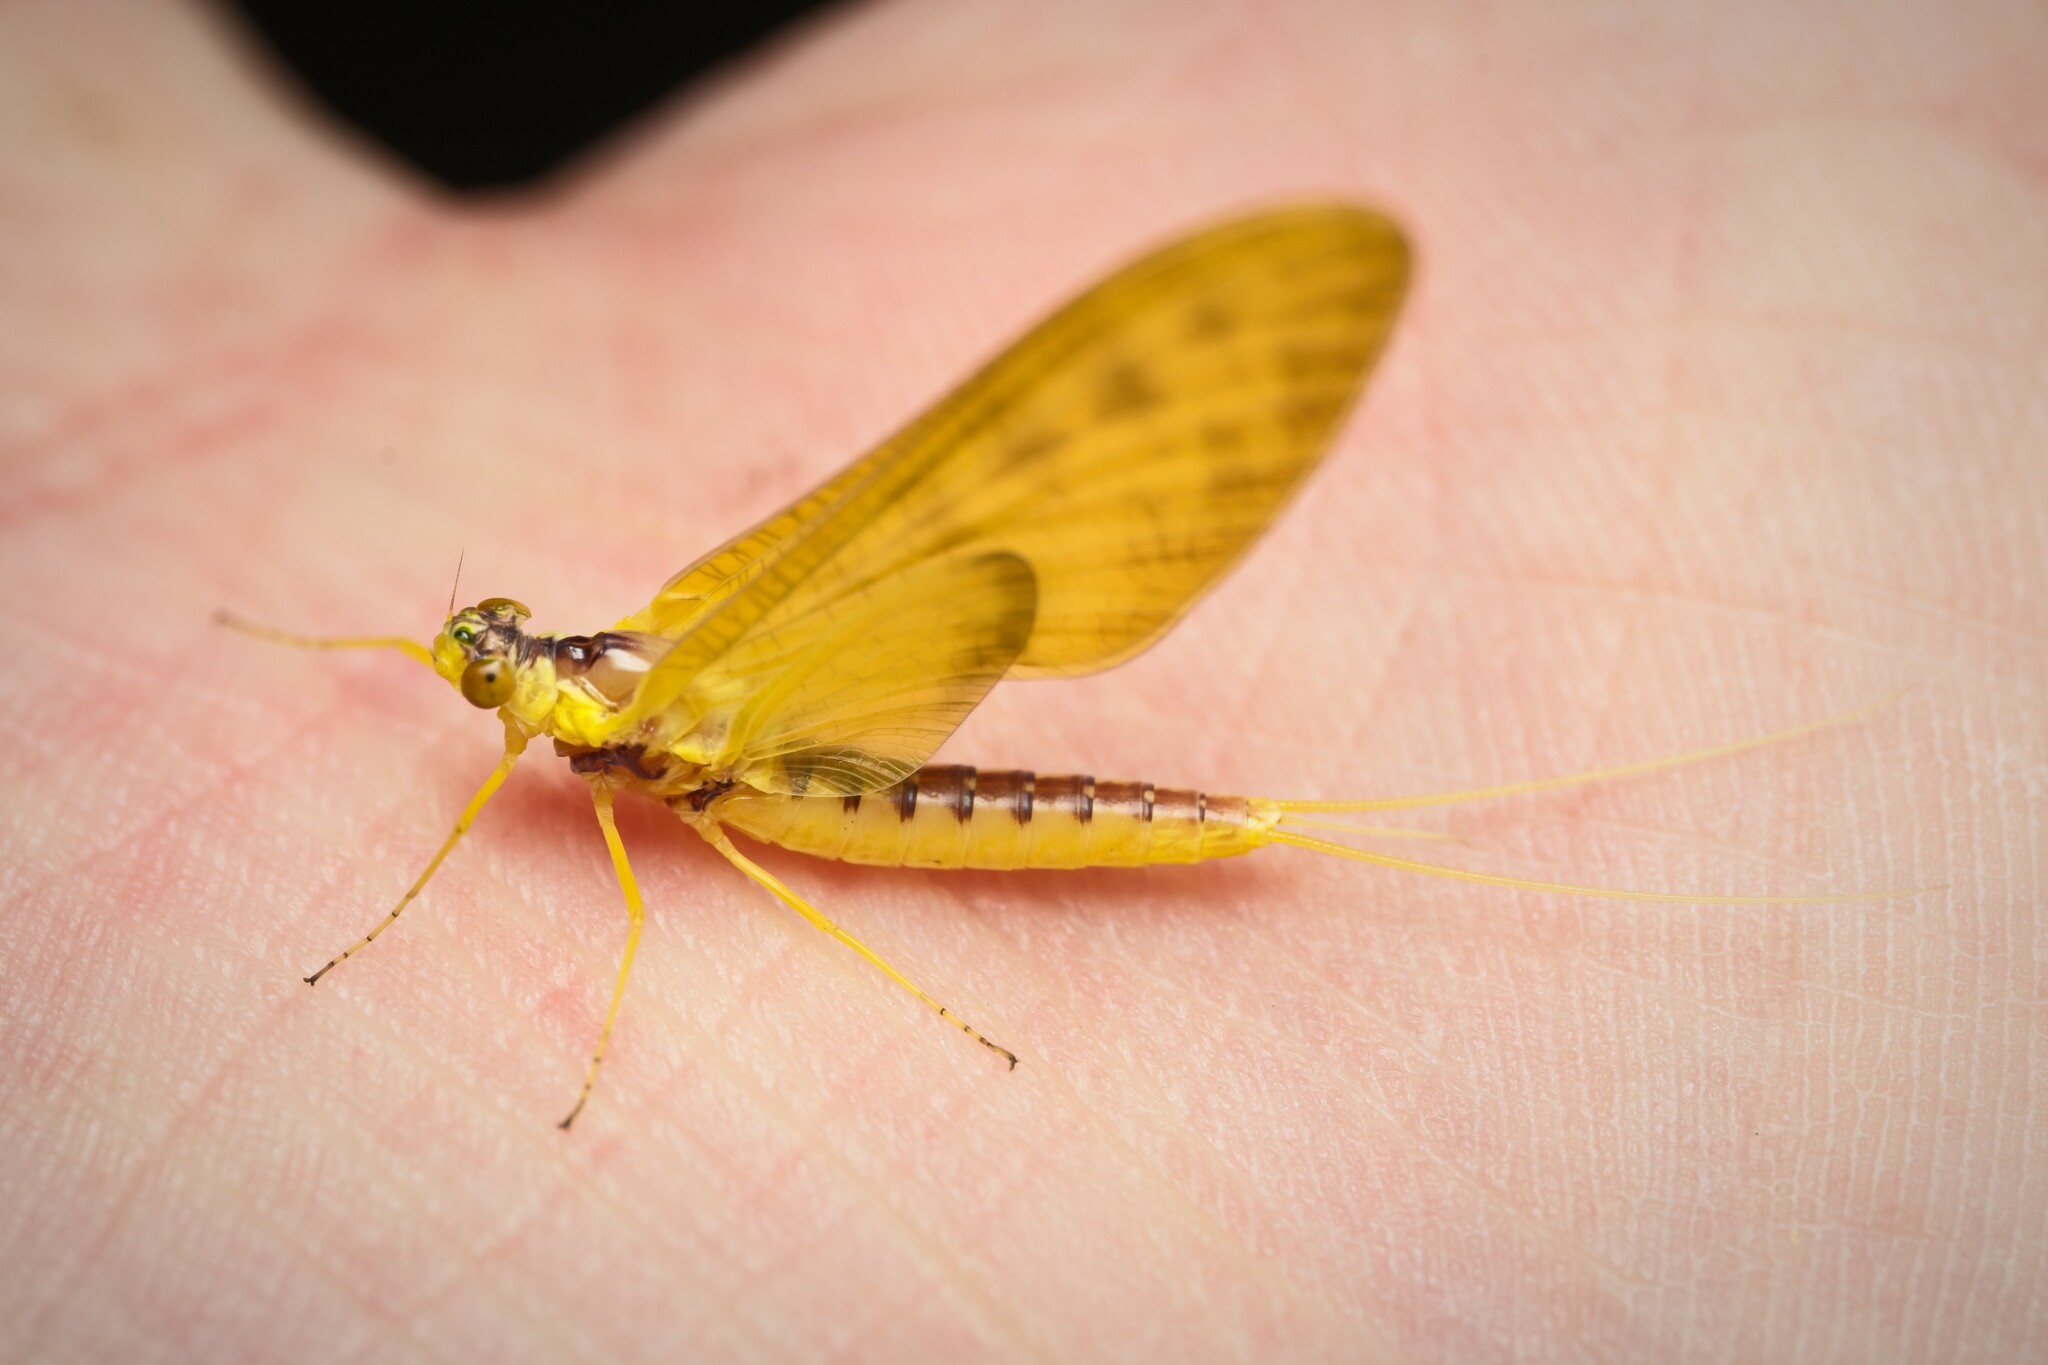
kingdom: Animalia
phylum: Arthropoda
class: Insecta
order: Ephemeroptera
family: Ameletopsidae
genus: Ameletopsis
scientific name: Ameletopsis perscitus
